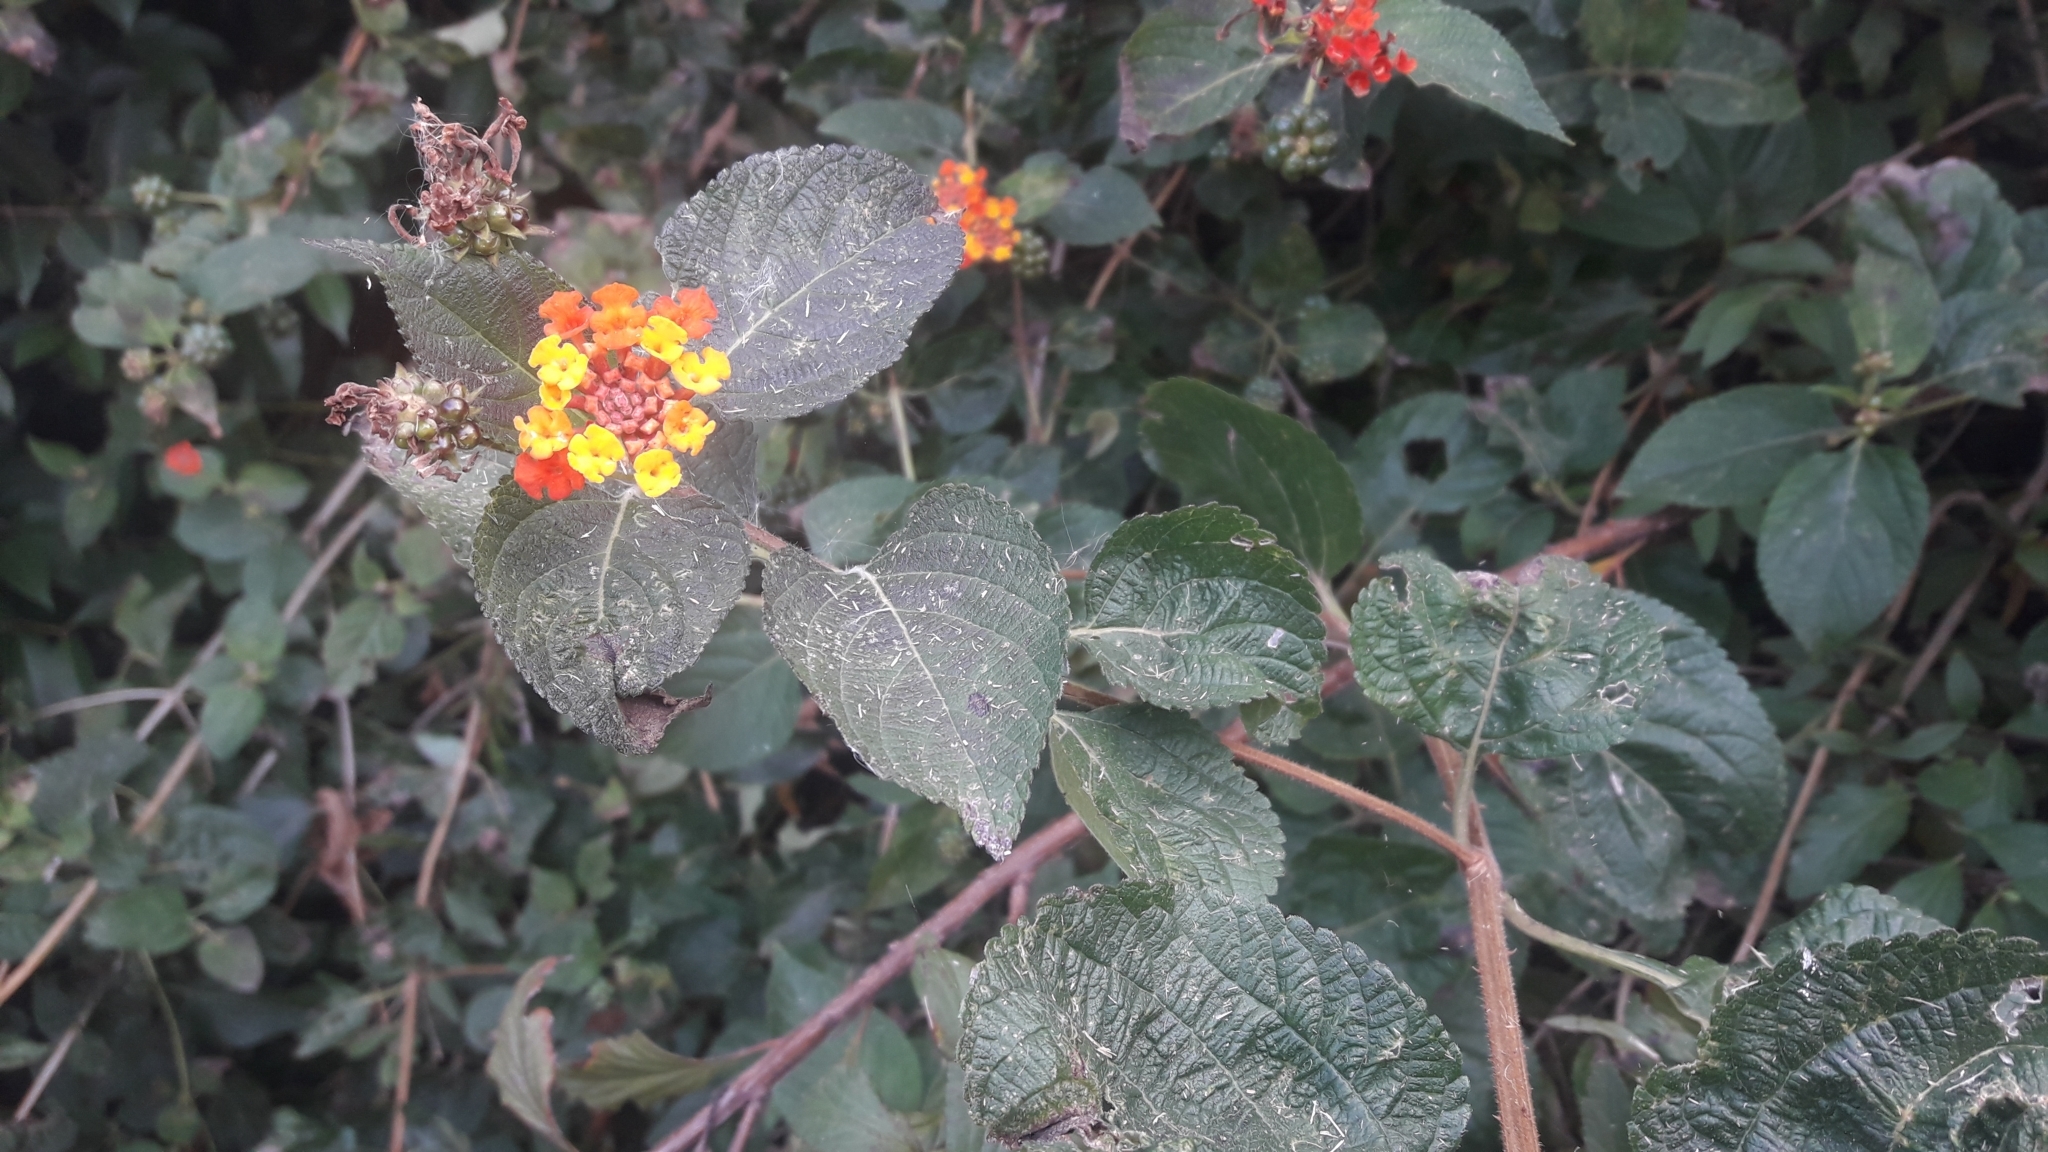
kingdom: Plantae
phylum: Tracheophyta
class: Magnoliopsida
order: Lamiales
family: Verbenaceae
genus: Lantana
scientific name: Lantana camara
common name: Lantana
